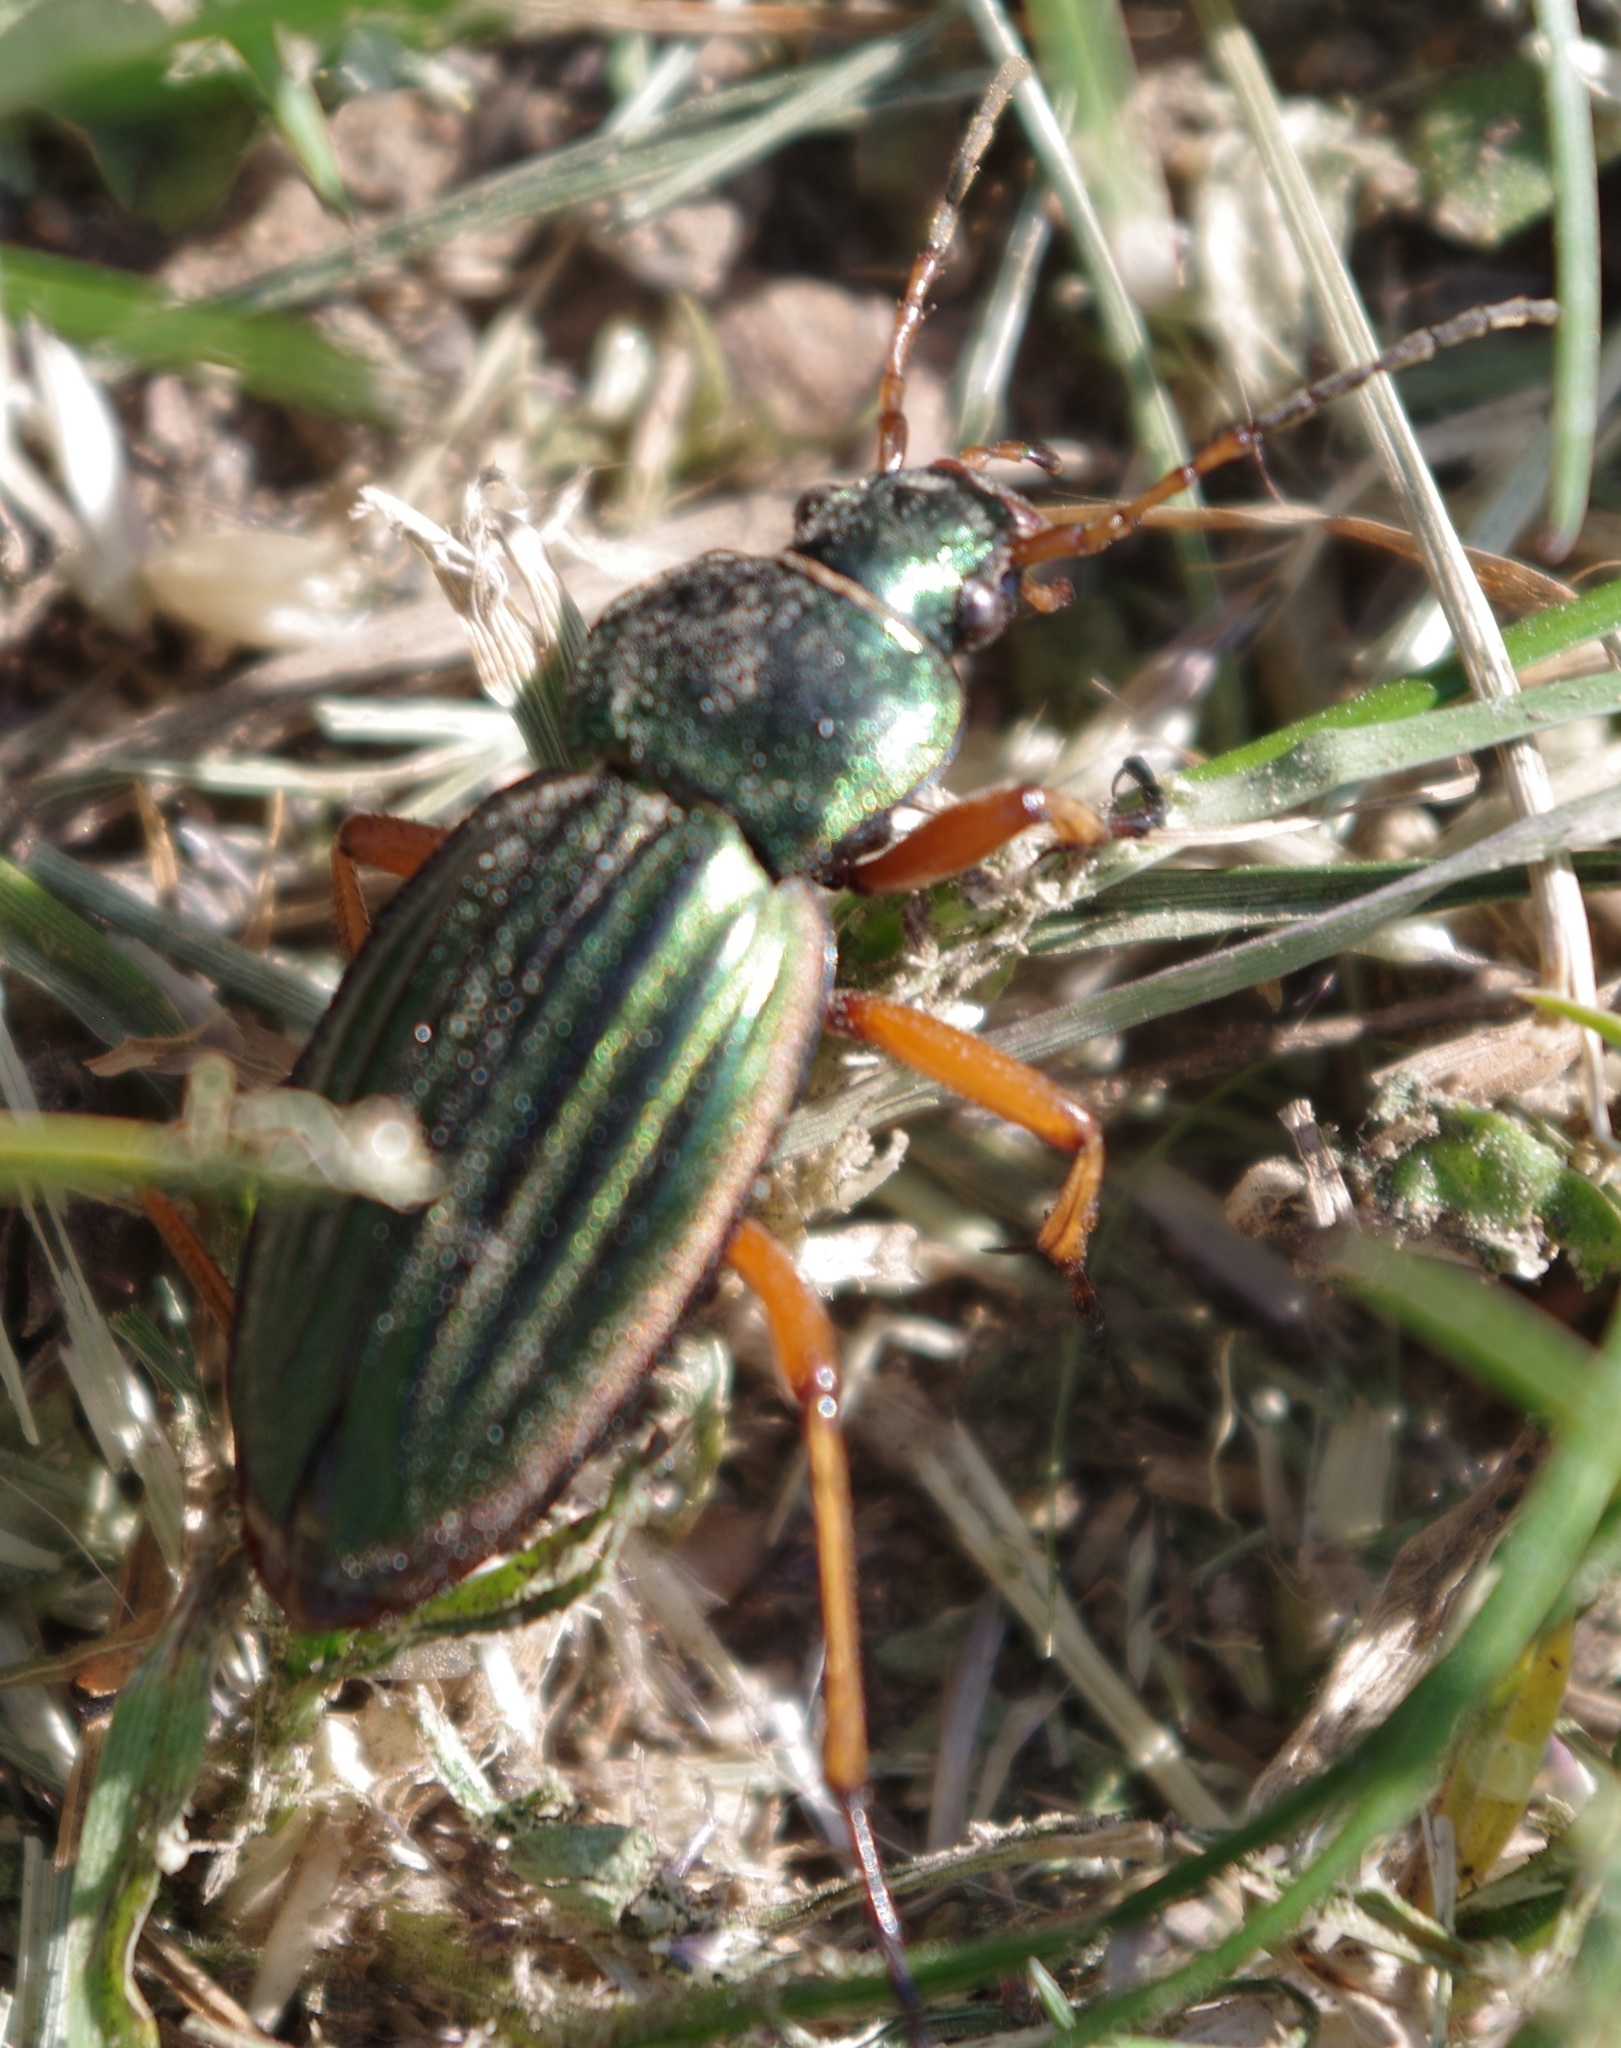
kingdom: Animalia
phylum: Arthropoda
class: Insecta
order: Coleoptera
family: Carabidae
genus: Carabus
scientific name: Carabus auratus
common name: Golden ground beetle
